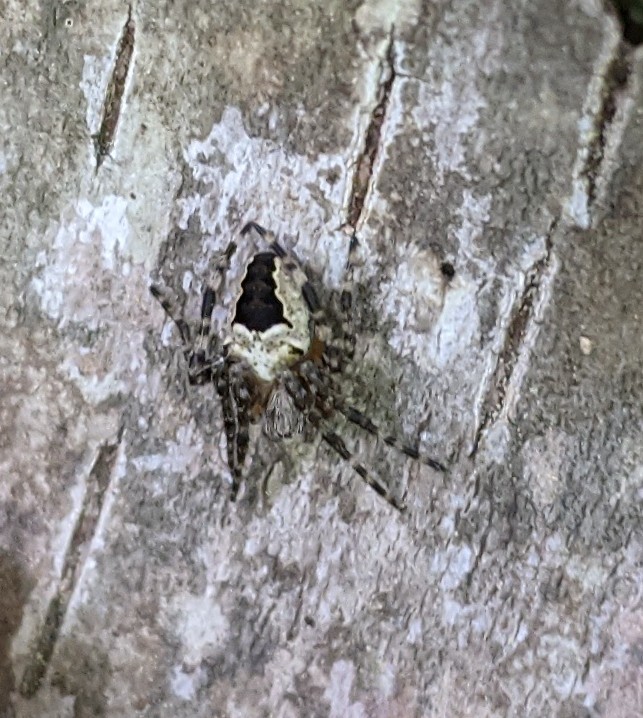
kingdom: Animalia
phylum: Arthropoda
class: Arachnida
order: Araneae
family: Araneidae
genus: Araneus
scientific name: Araneus nordmanni
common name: Nordmann's orbweaver
